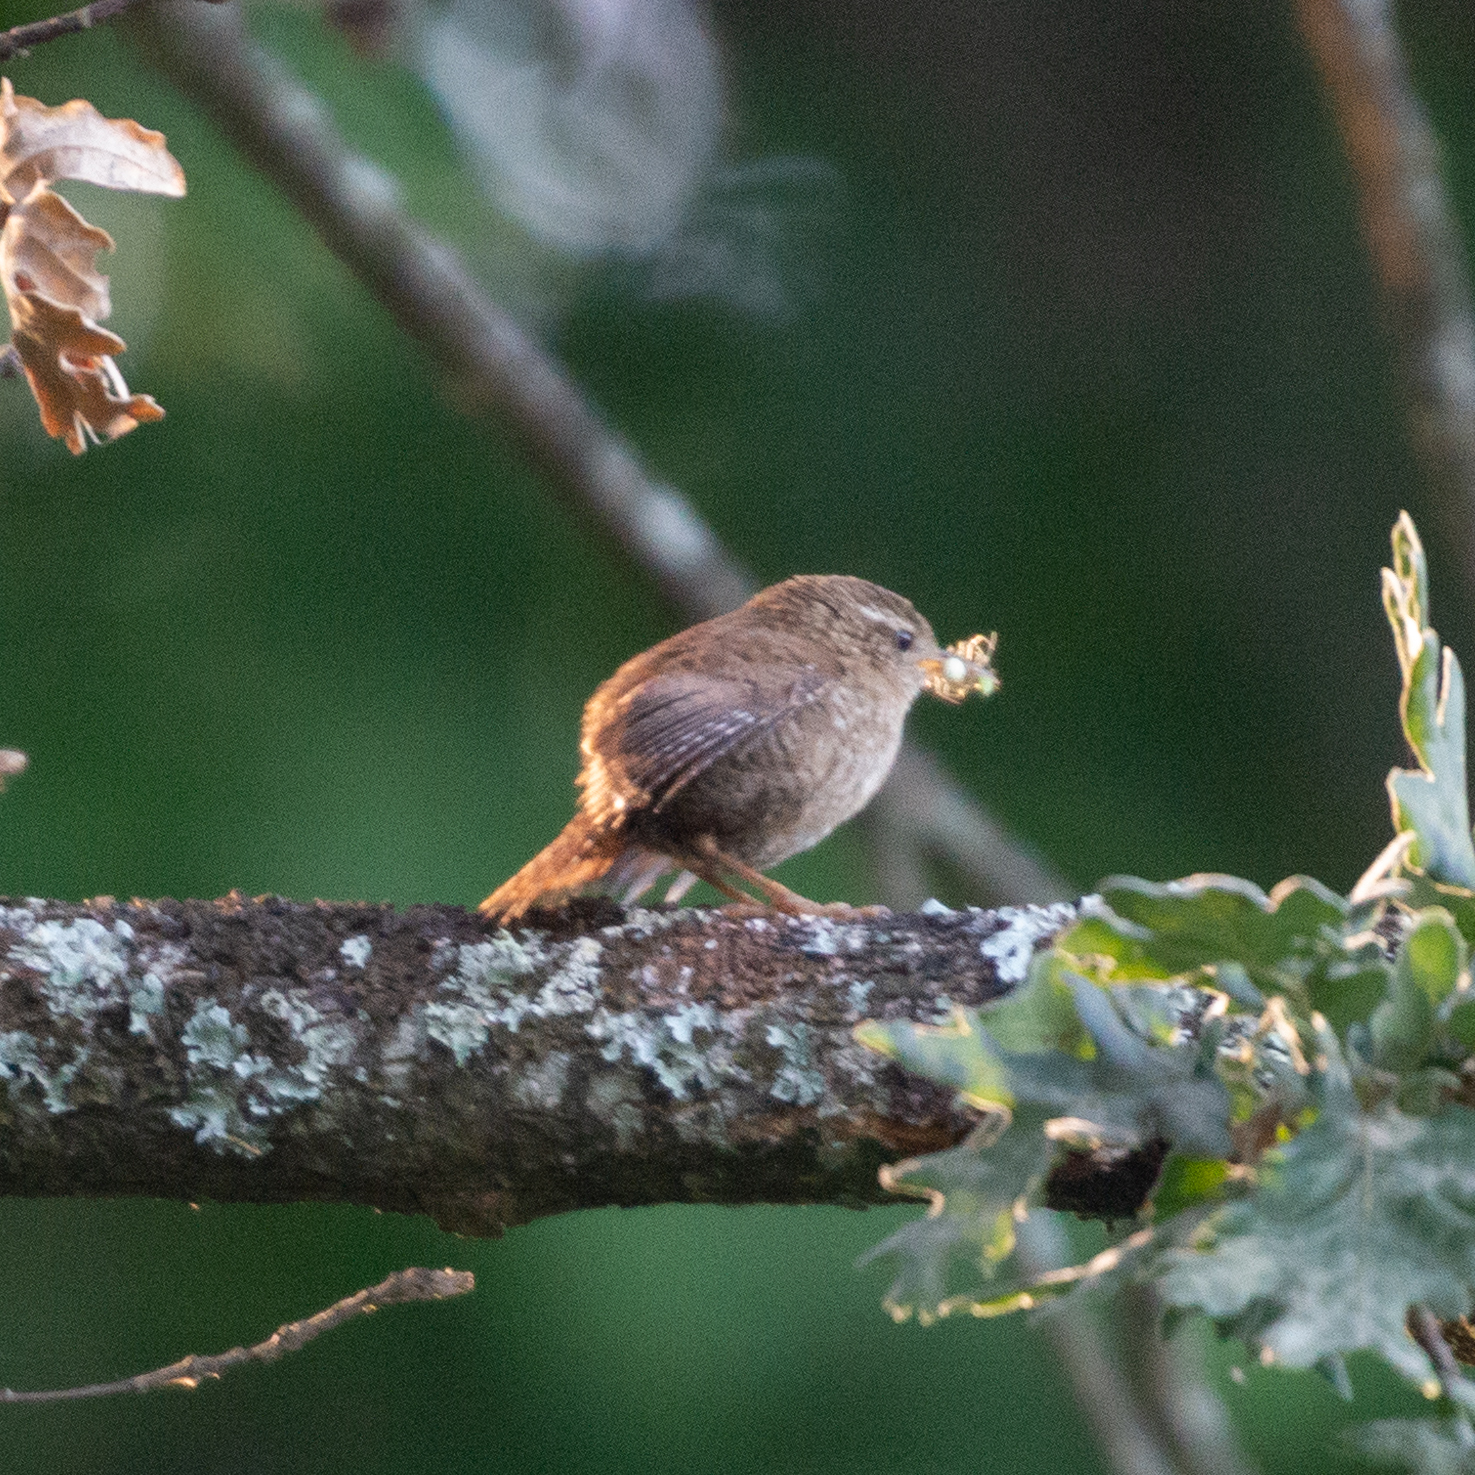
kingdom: Animalia
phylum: Chordata
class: Aves
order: Passeriformes
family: Troglodytidae
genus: Troglodytes
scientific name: Troglodytes troglodytes
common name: Eurasian wren
